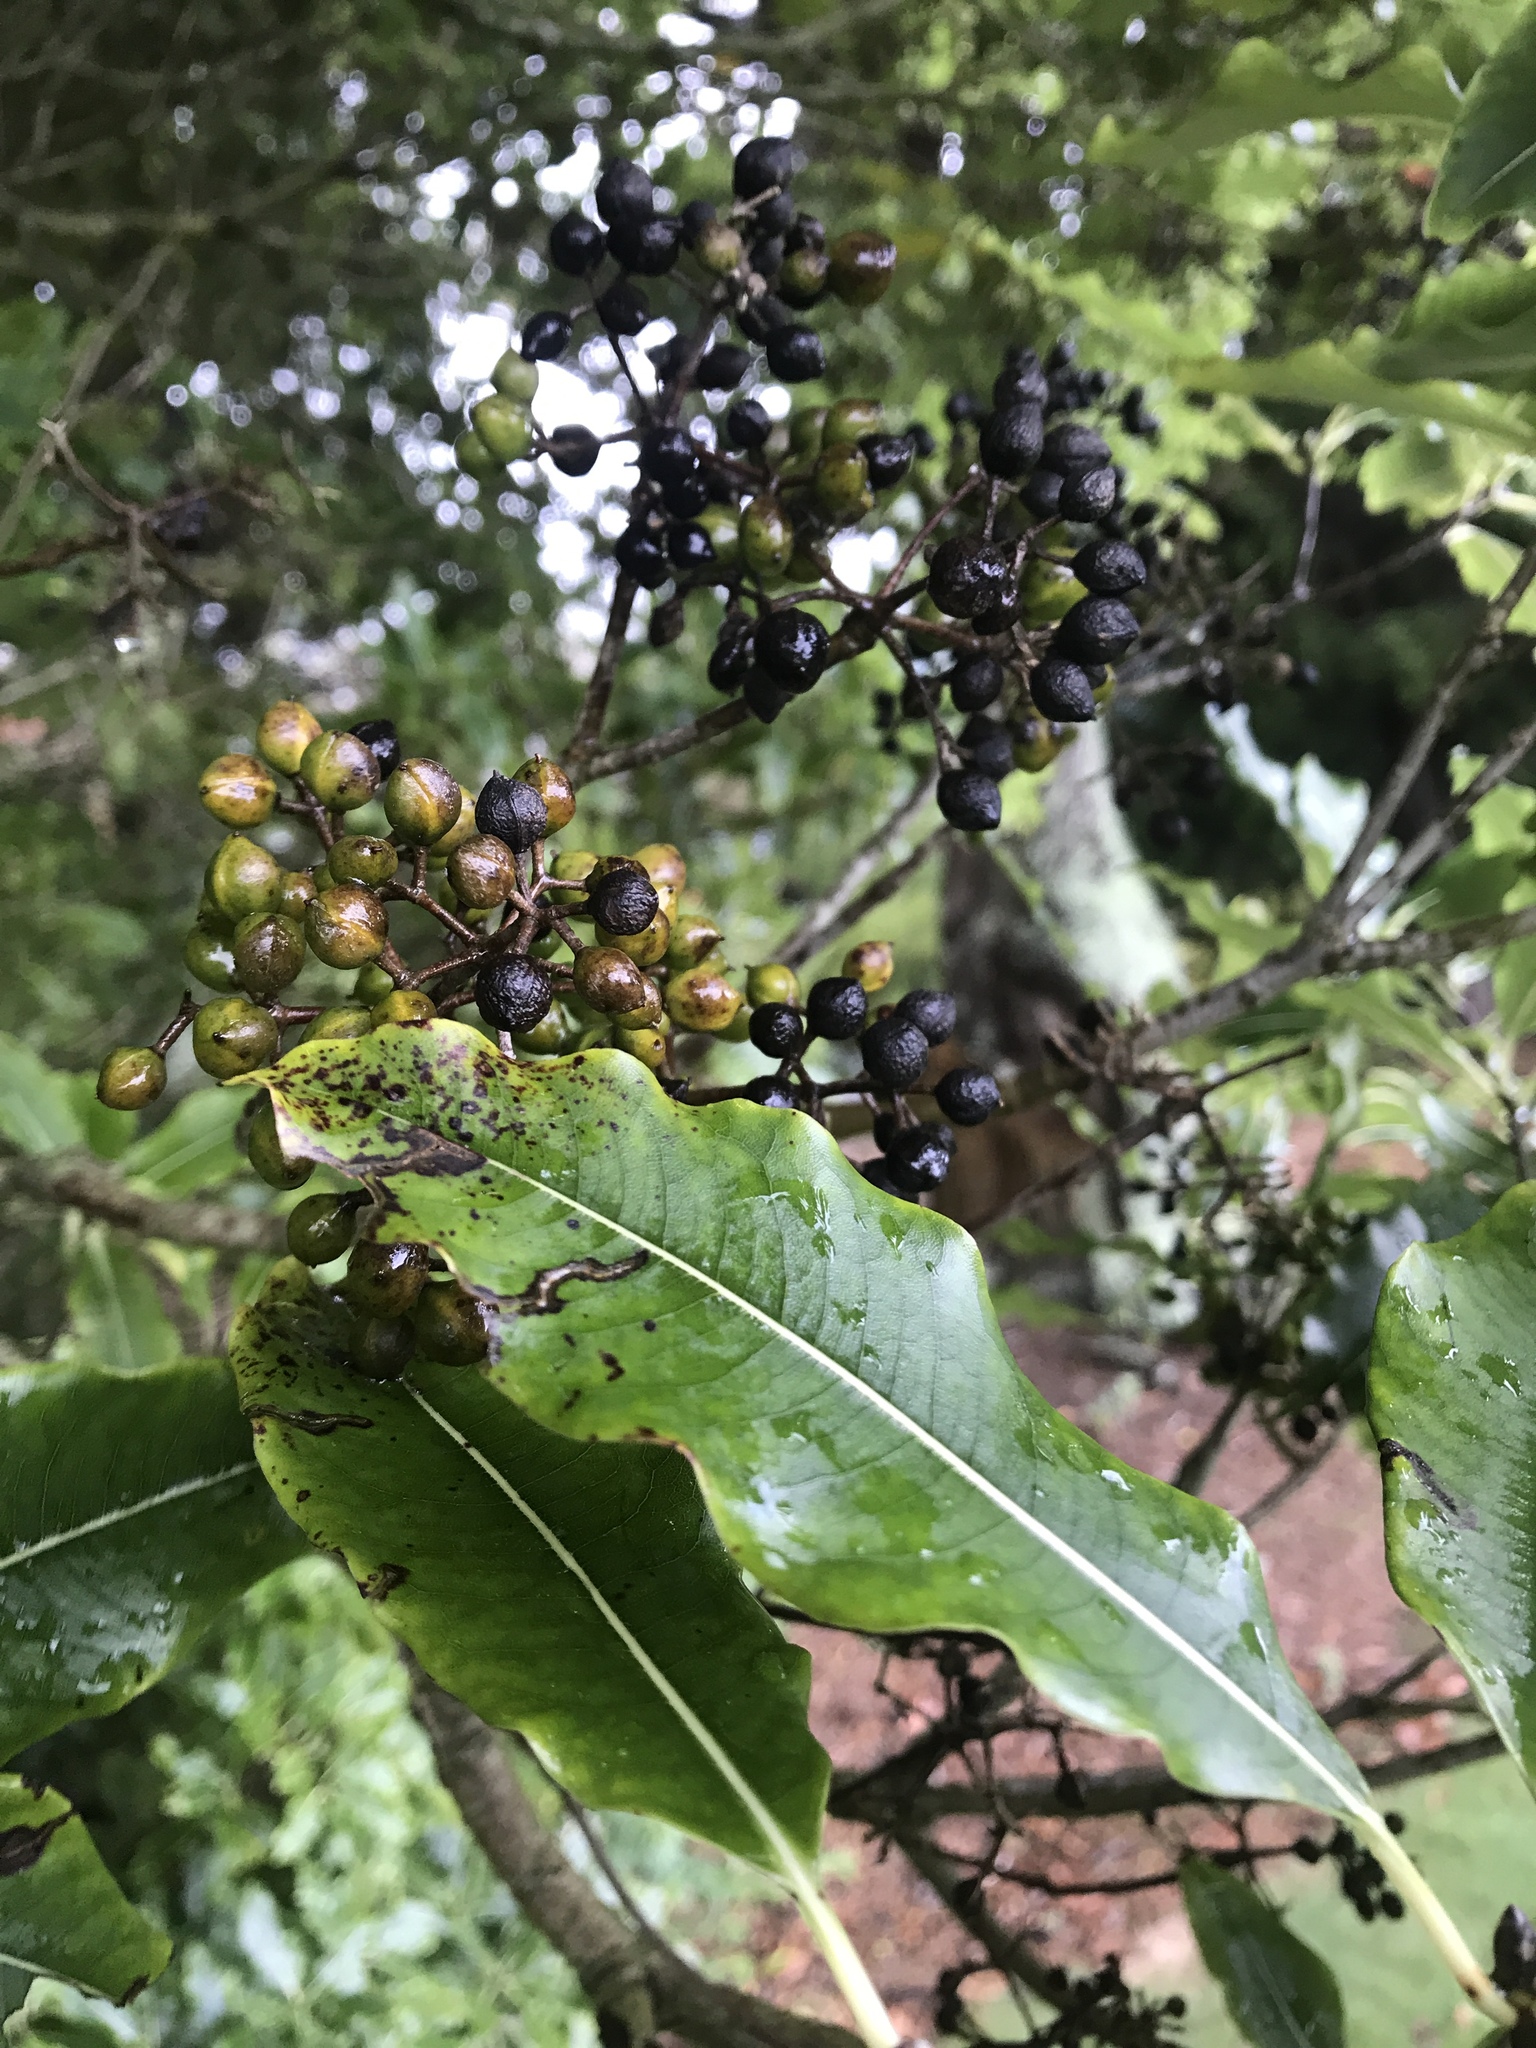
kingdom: Plantae
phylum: Tracheophyta
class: Magnoliopsida
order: Apiales
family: Pittosporaceae
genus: Pittosporum
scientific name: Pittosporum eugenioides
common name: Lemonwood
